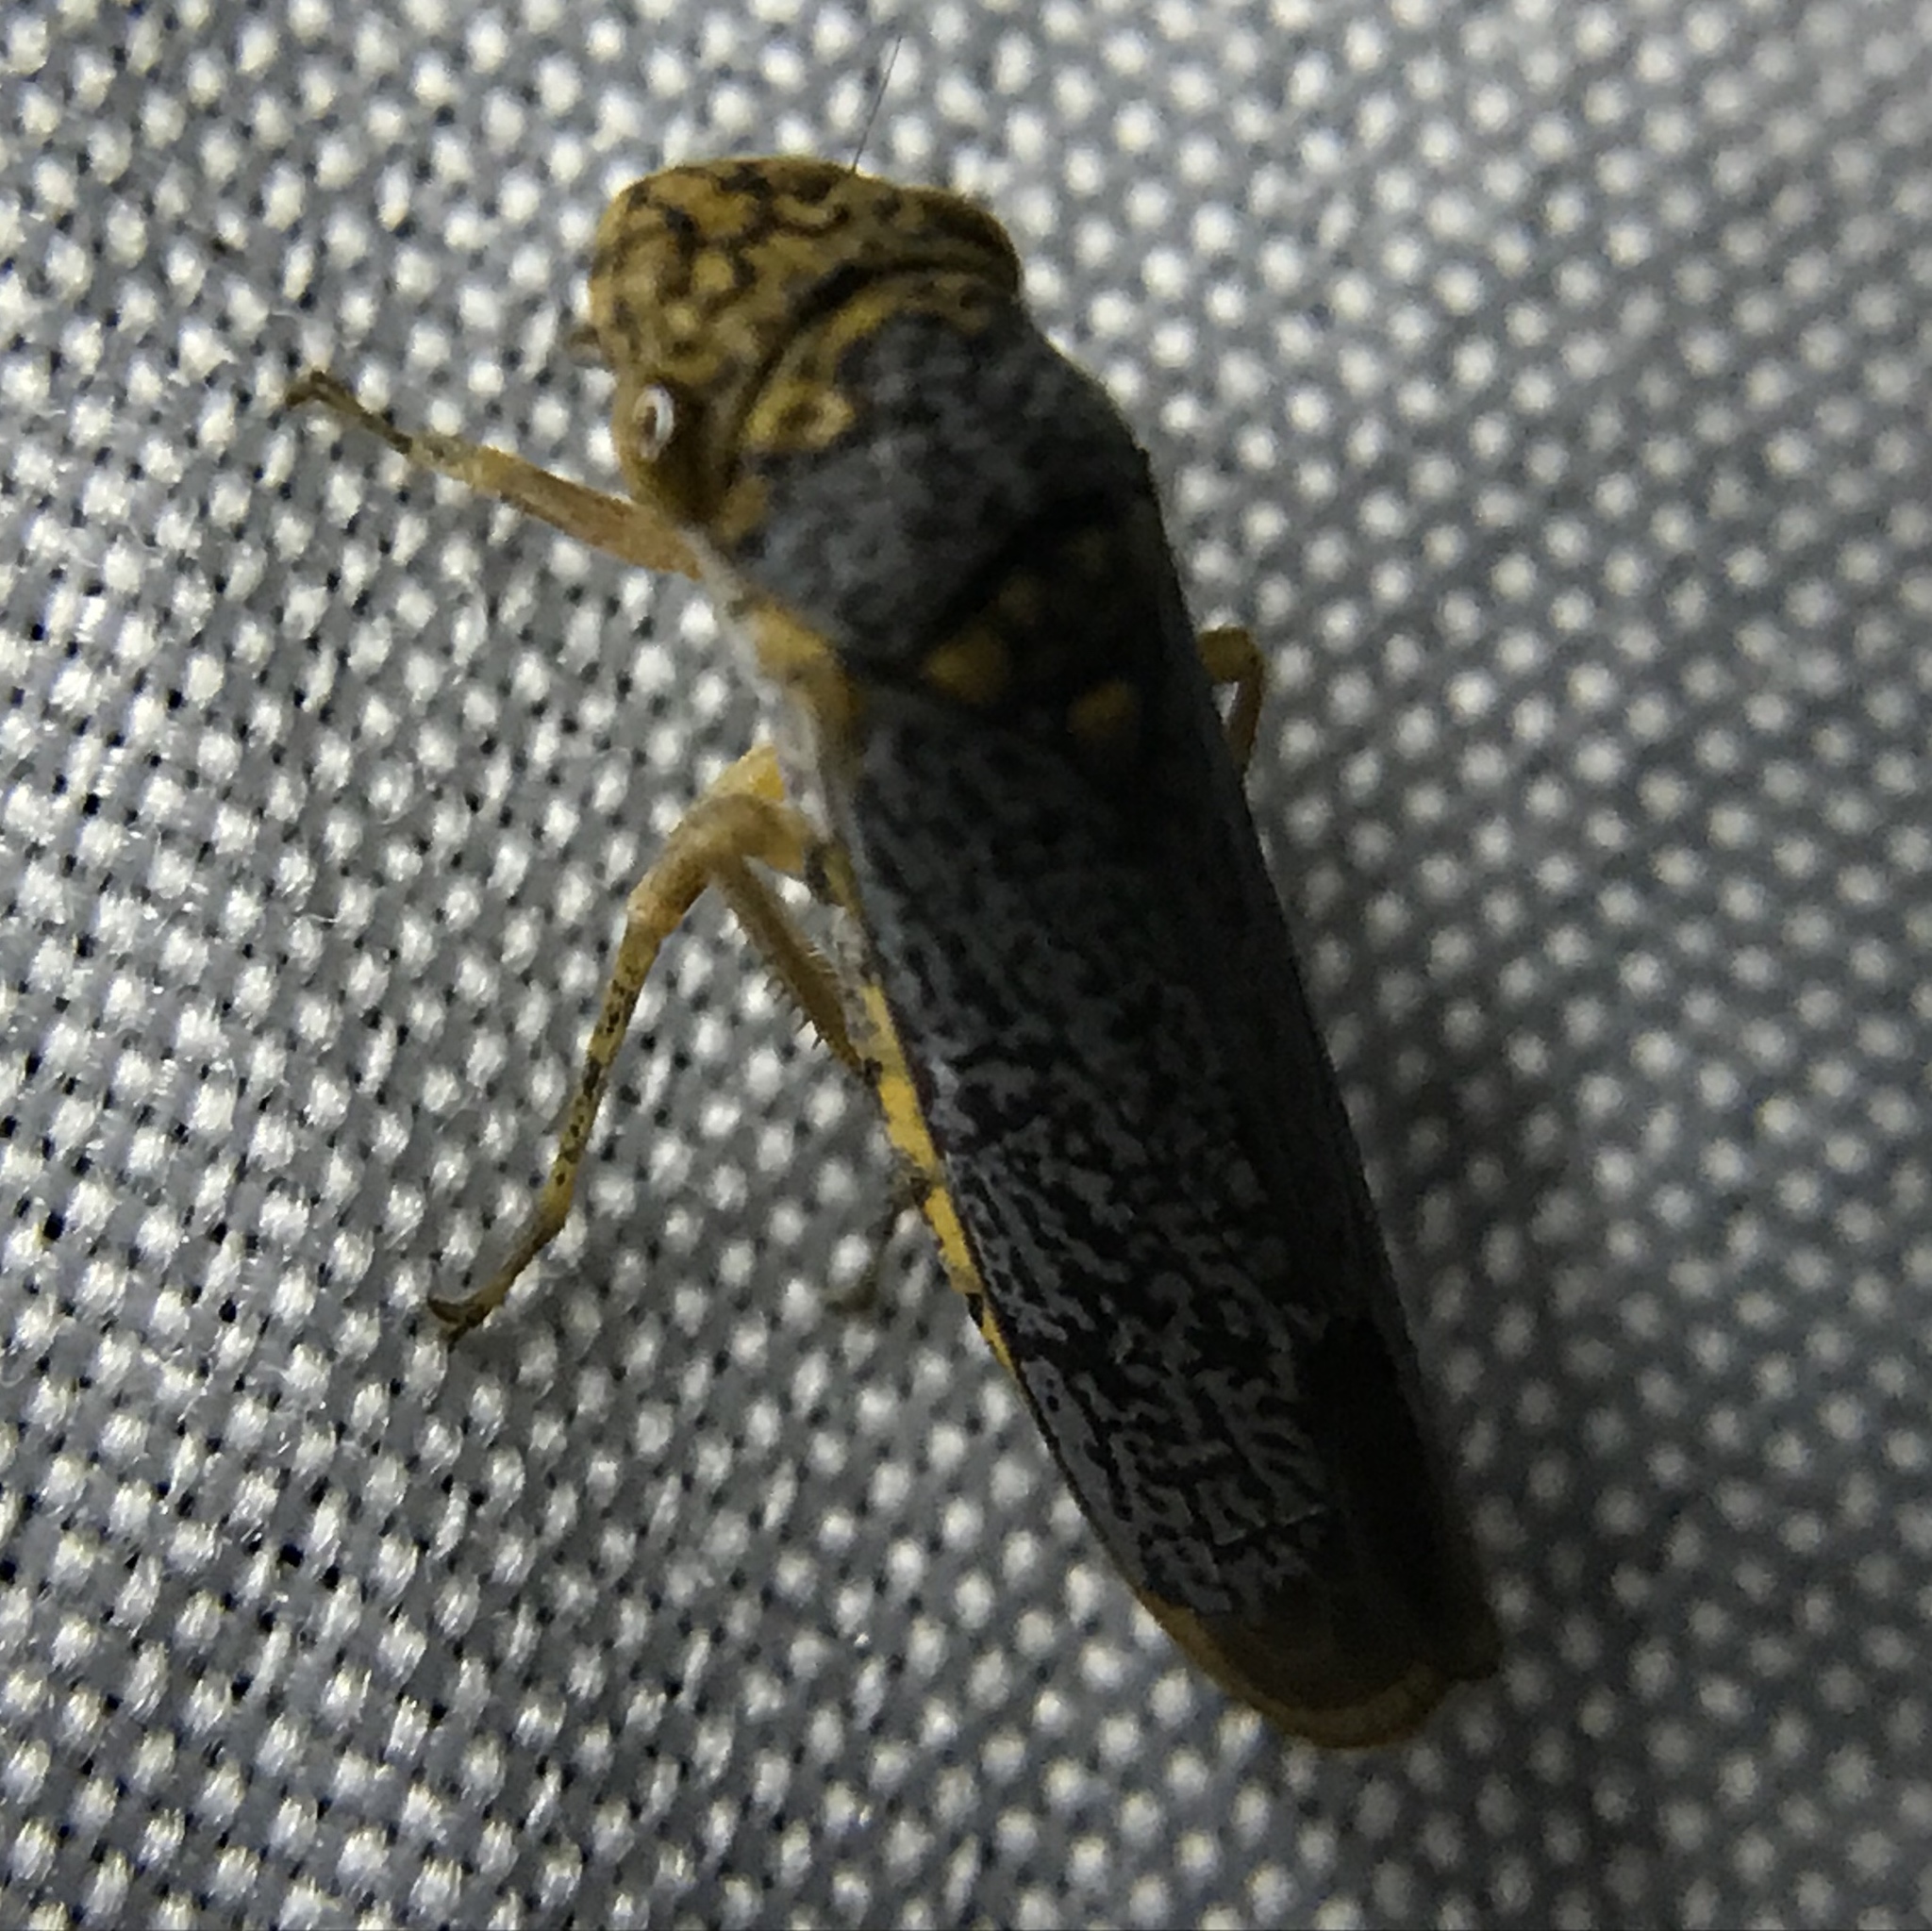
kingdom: Animalia
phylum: Arthropoda
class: Insecta
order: Hemiptera
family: Cicadellidae
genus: Oncometopia
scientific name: Oncometopia orbona
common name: Broad-headed sharpshooter
